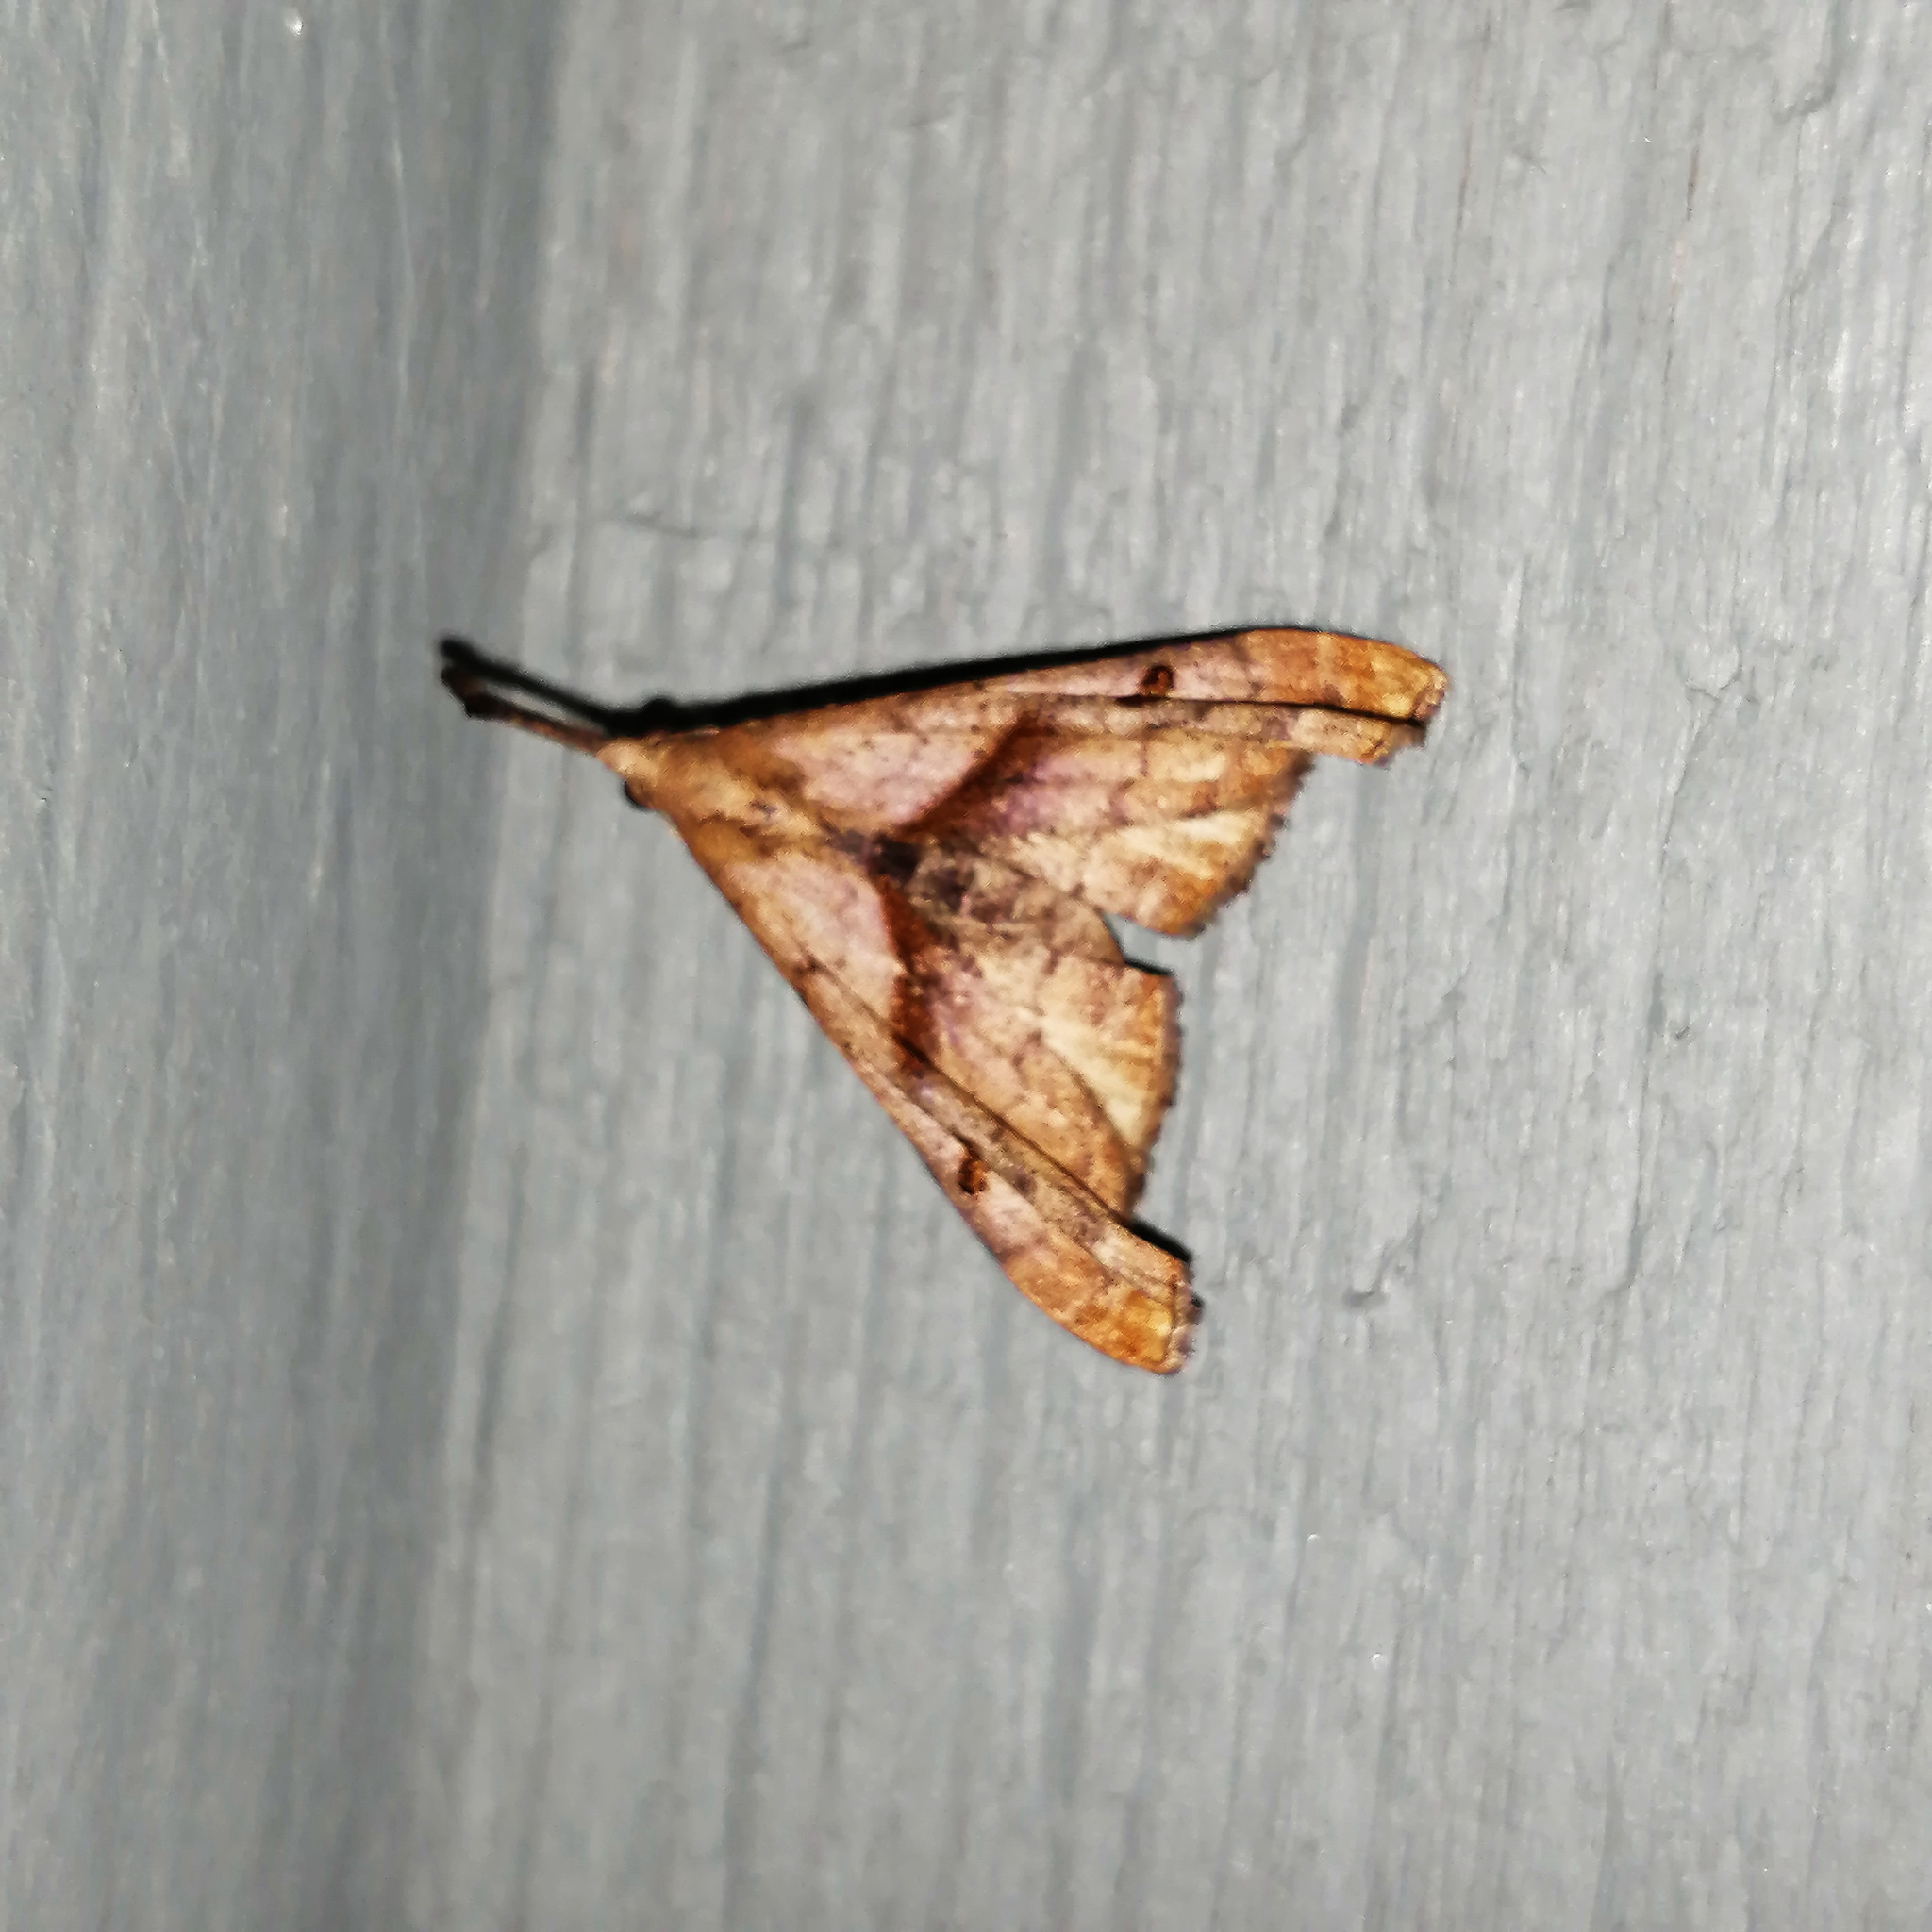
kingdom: Animalia
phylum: Arthropoda
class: Insecta
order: Lepidoptera
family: Erebidae
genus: Palthis
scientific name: Palthis angulalis
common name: Dark-spotted palthis moth
